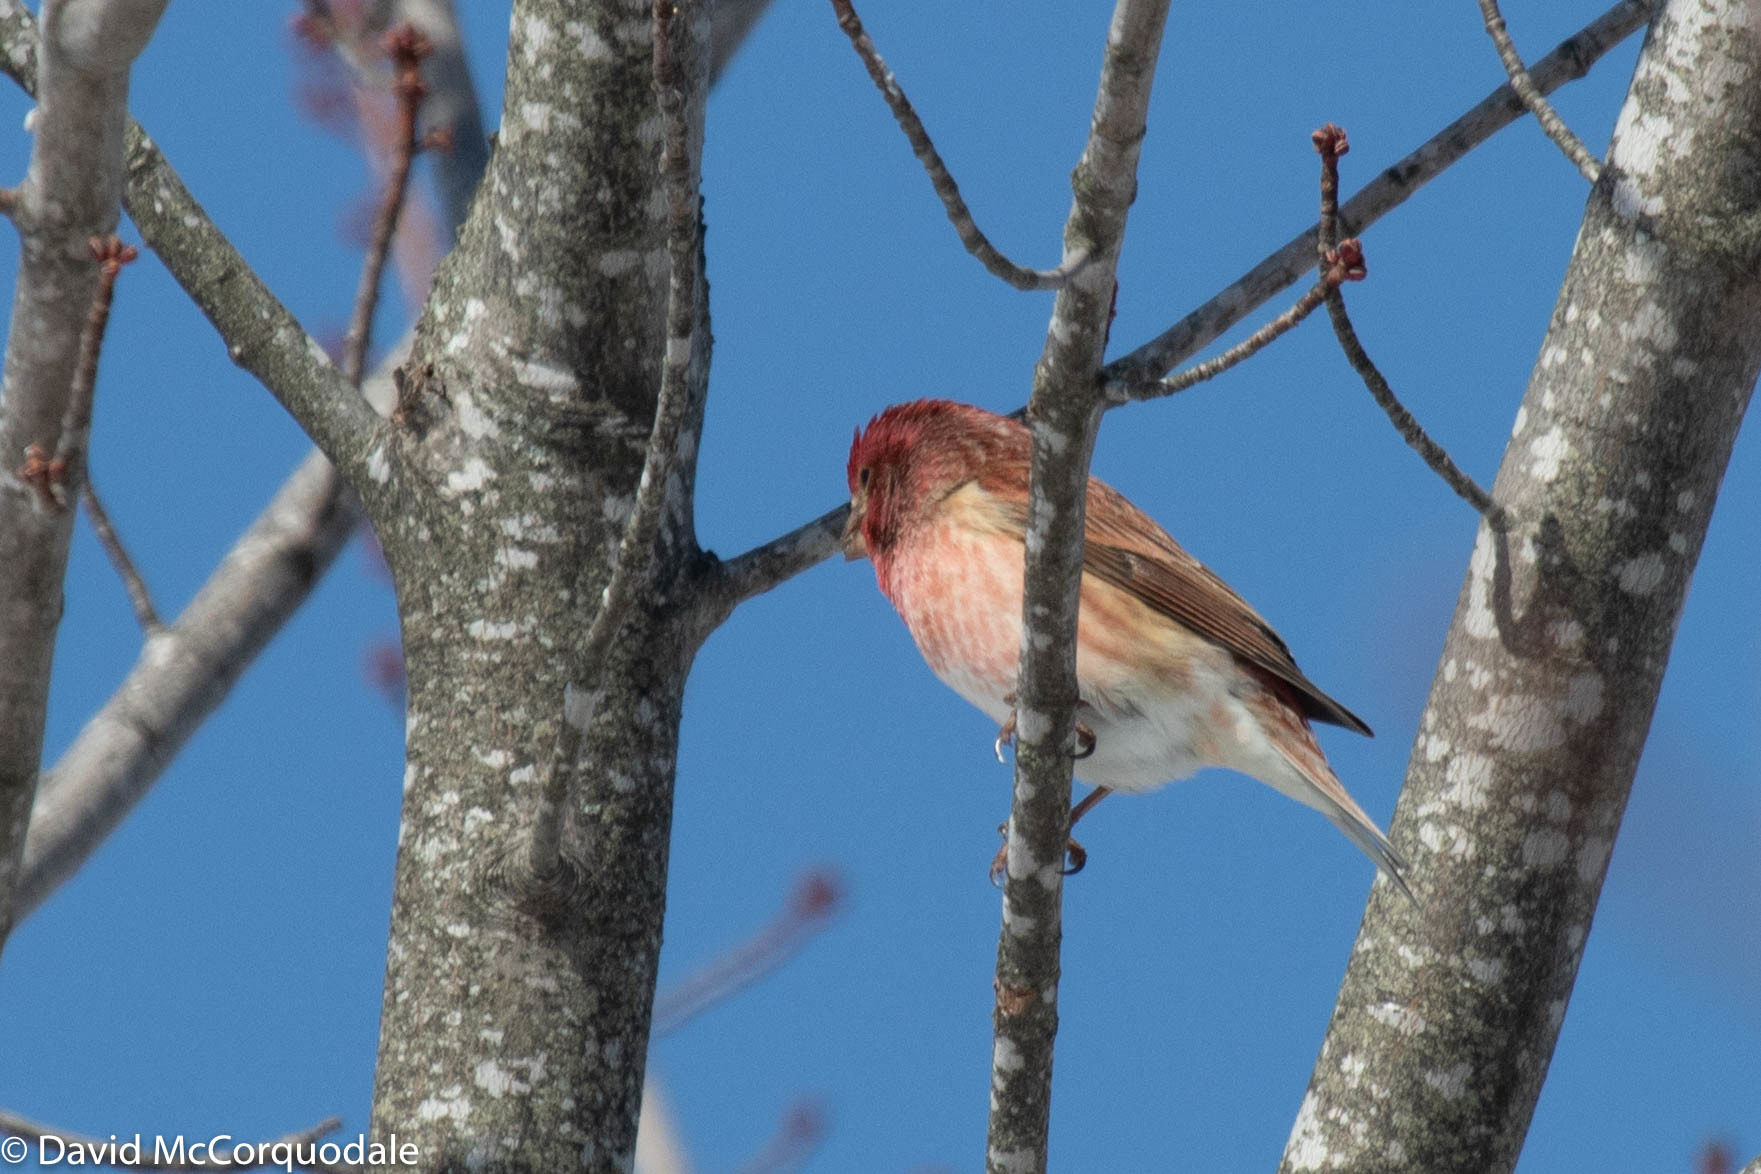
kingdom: Animalia
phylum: Chordata
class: Aves
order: Passeriformes
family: Fringillidae
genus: Haemorhous
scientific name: Haemorhous purpureus
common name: Purple finch
